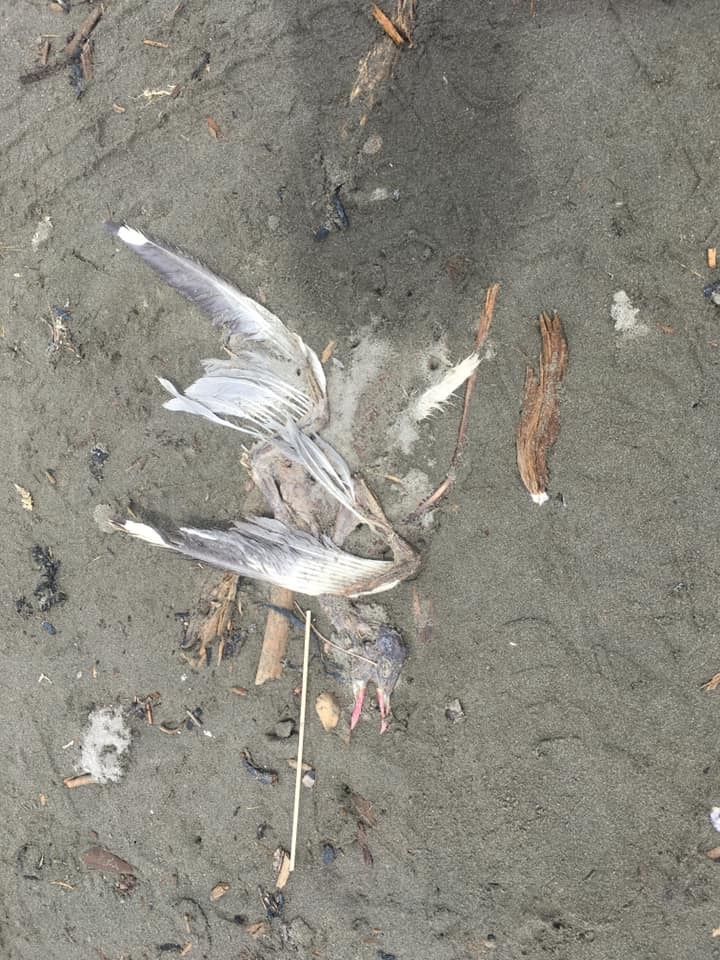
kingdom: Animalia
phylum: Chordata
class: Aves
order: Charadriiformes
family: Laridae
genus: Chroicocephalus
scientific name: Chroicocephalus novaehollandiae
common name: Silver gull
